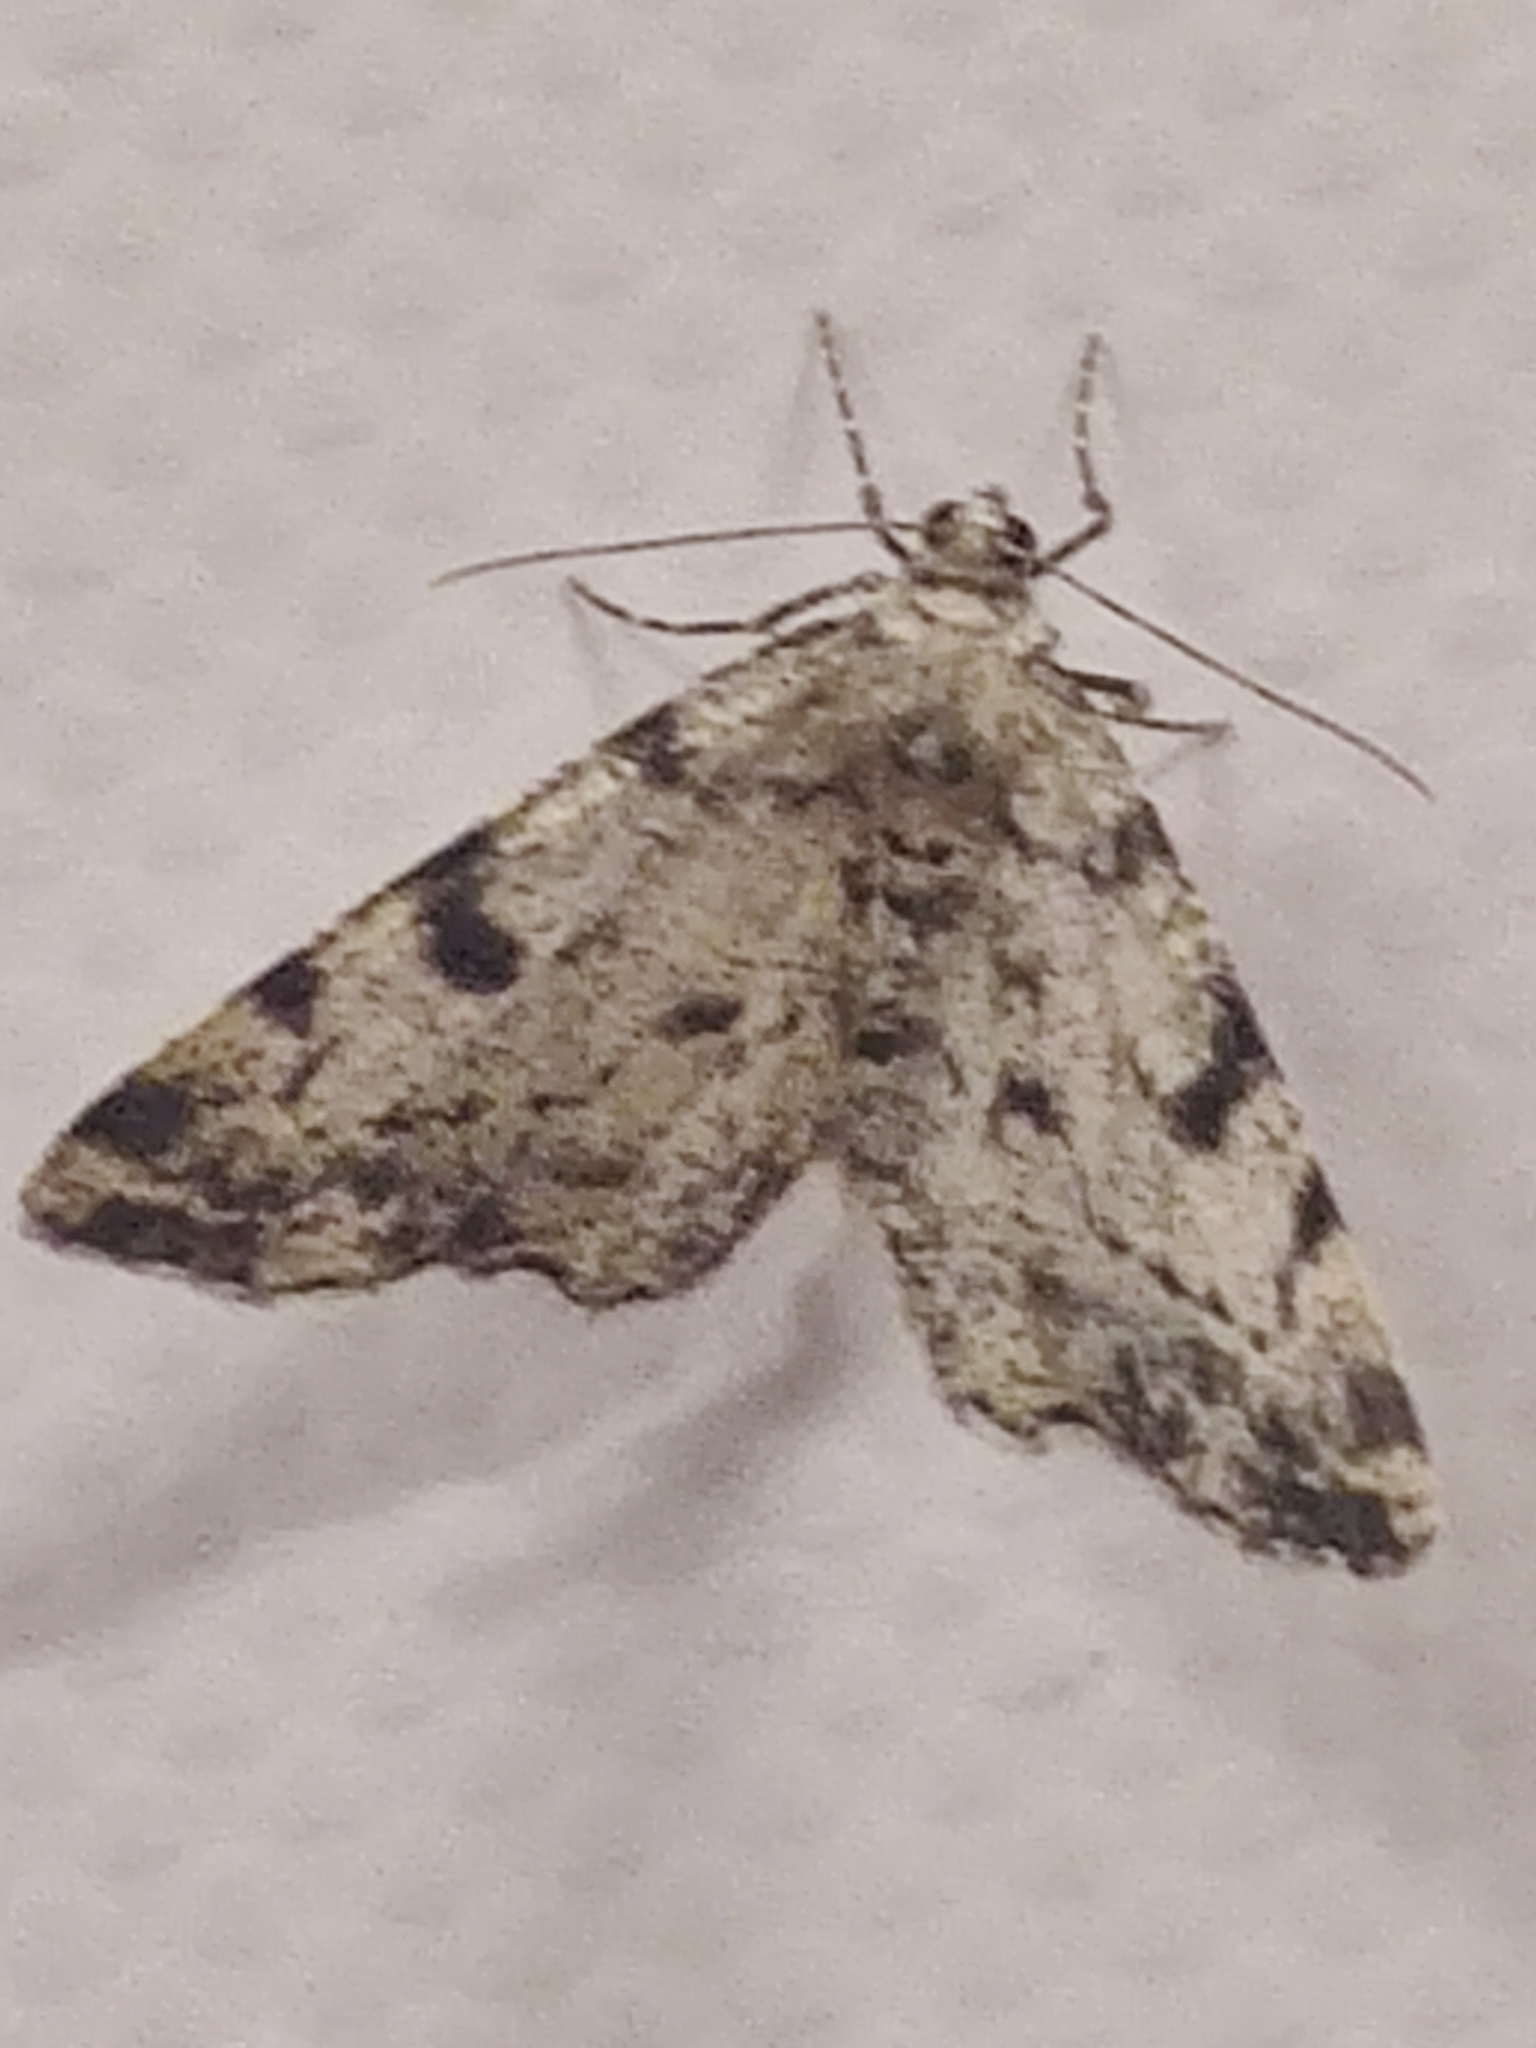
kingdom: Animalia
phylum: Arthropoda
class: Insecta
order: Lepidoptera
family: Geometridae
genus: Alcis
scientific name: Alcis jubata
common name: Dotted carpet
